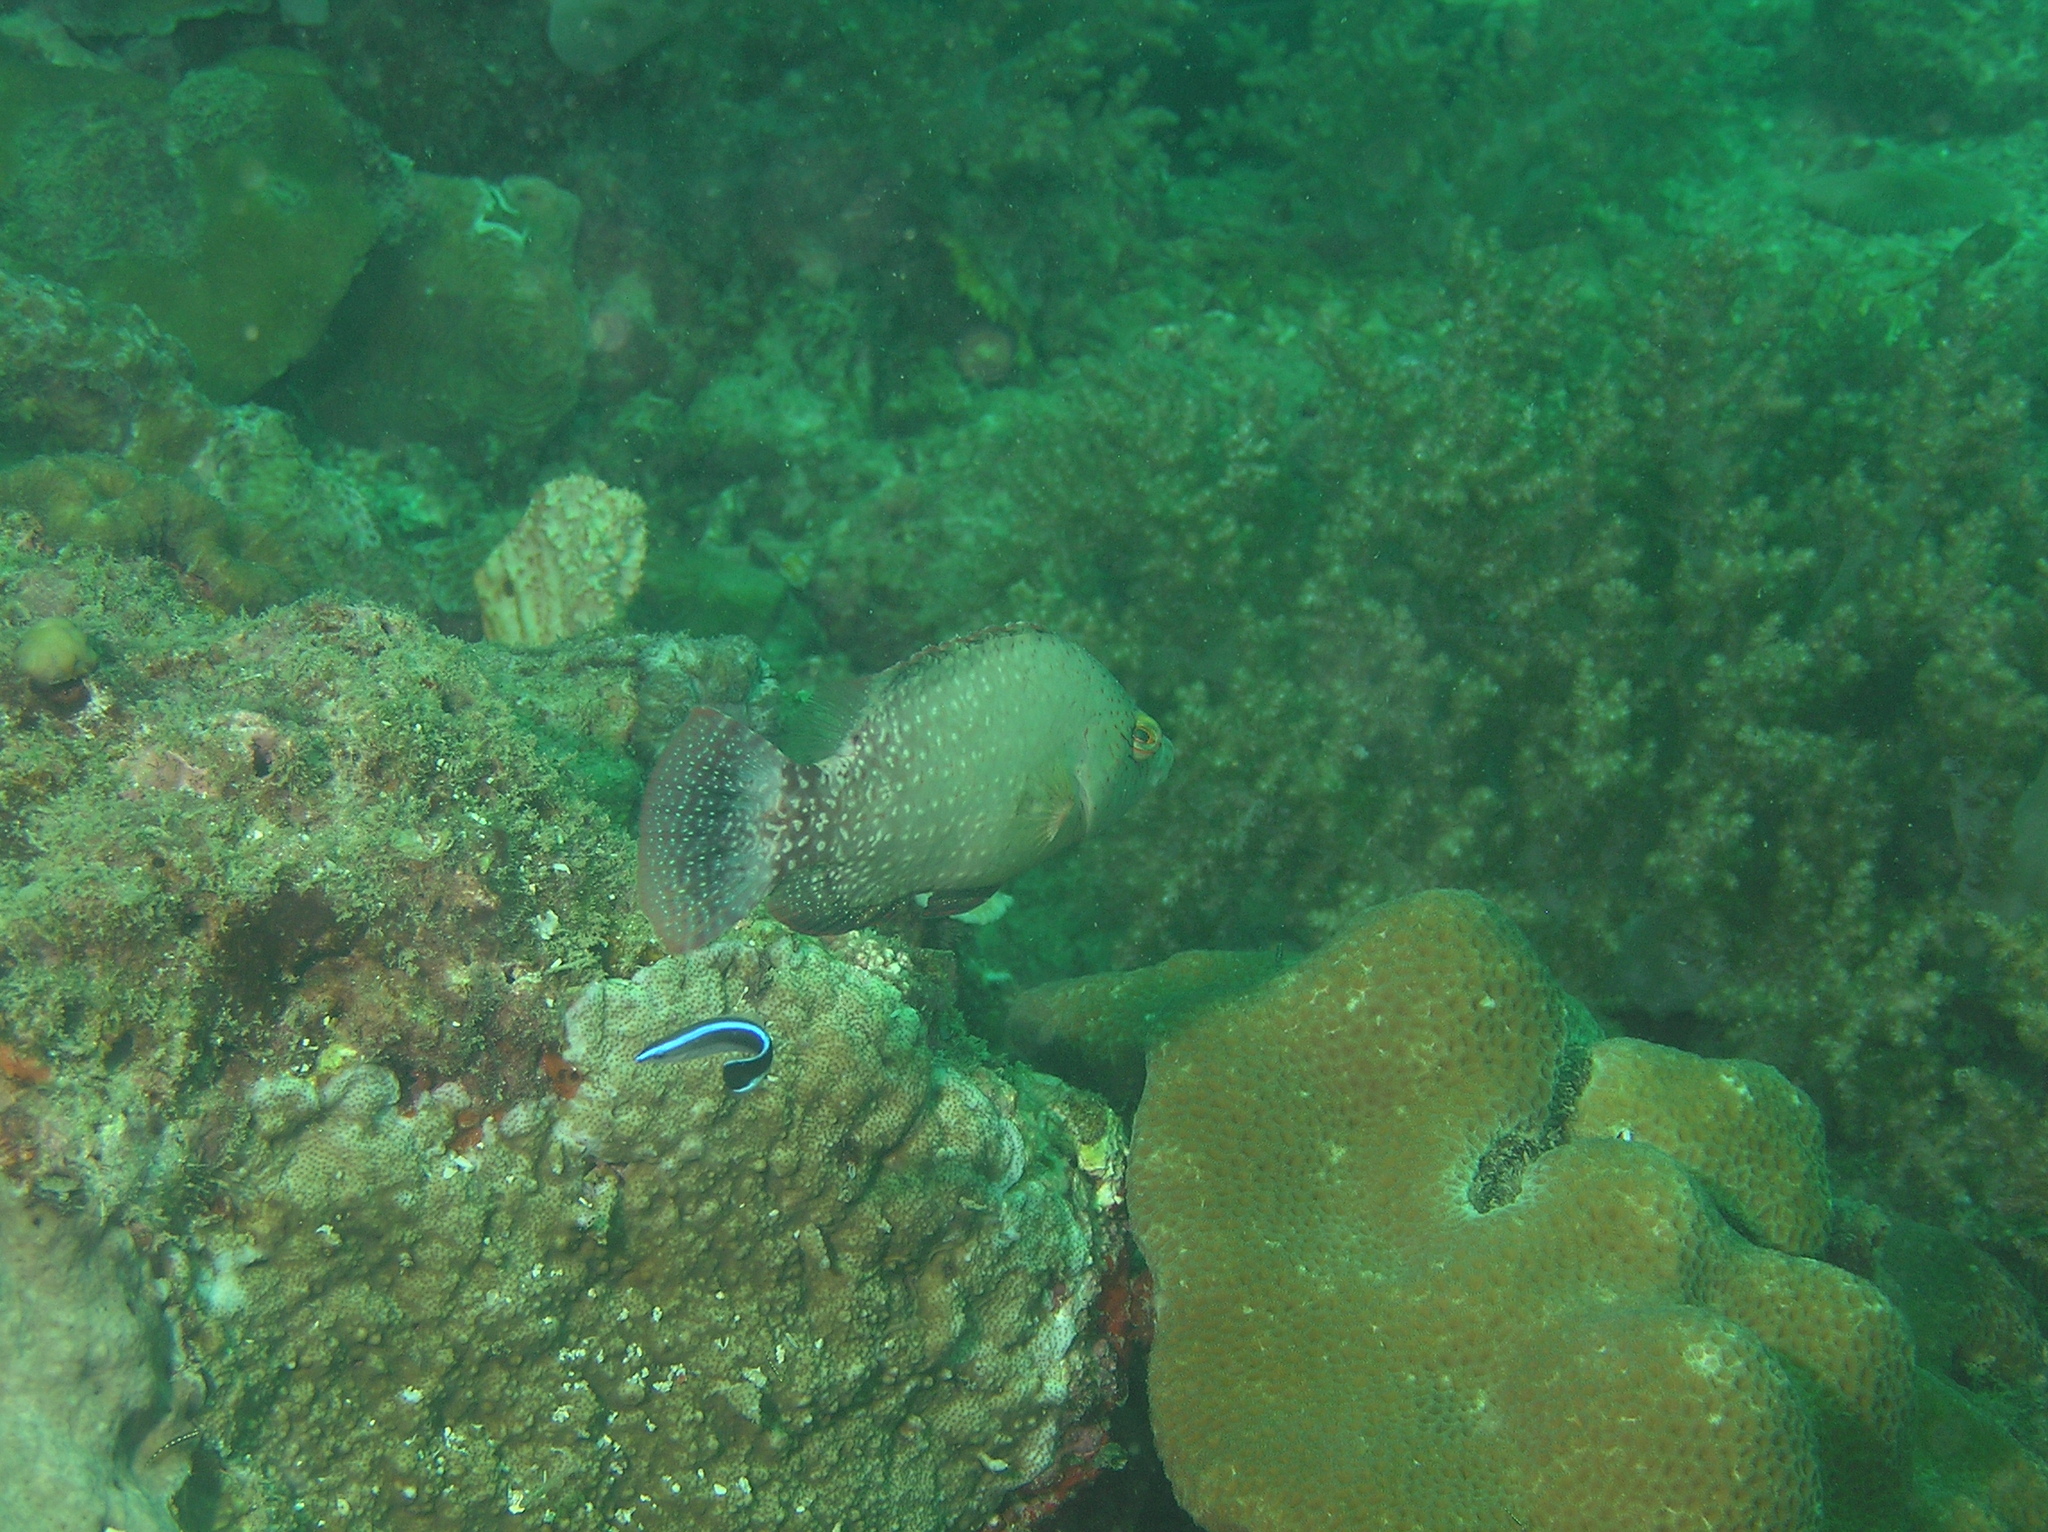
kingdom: Animalia
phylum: Chordata
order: Perciformes
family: Labridae
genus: Cheilinus
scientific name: Cheilinus chlorourus
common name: Floral wrasse
